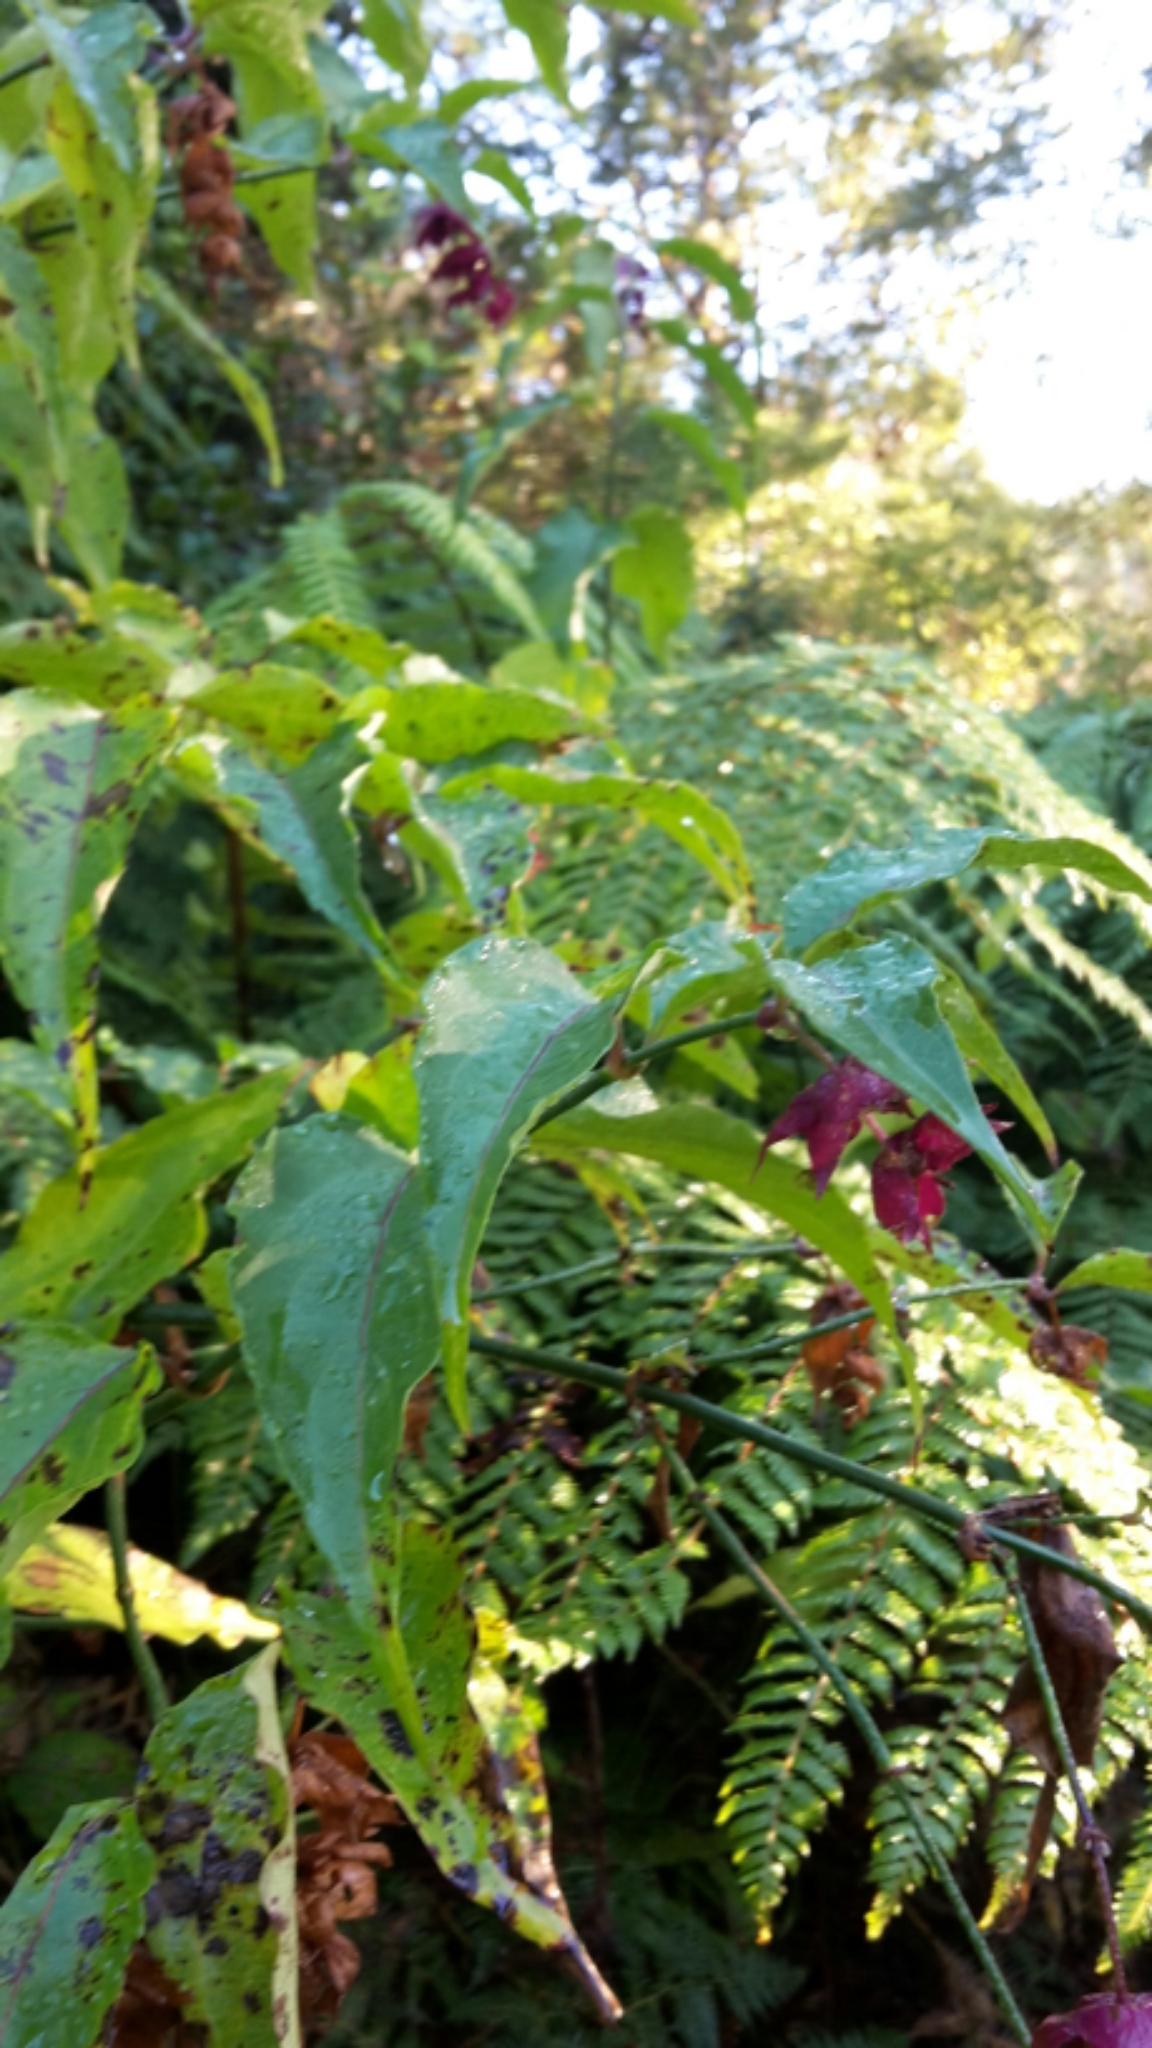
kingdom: Plantae
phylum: Tracheophyta
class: Magnoliopsida
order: Dipsacales
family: Caprifoliaceae
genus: Leycesteria
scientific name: Leycesteria formosa
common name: Himalayan honeysuckle
